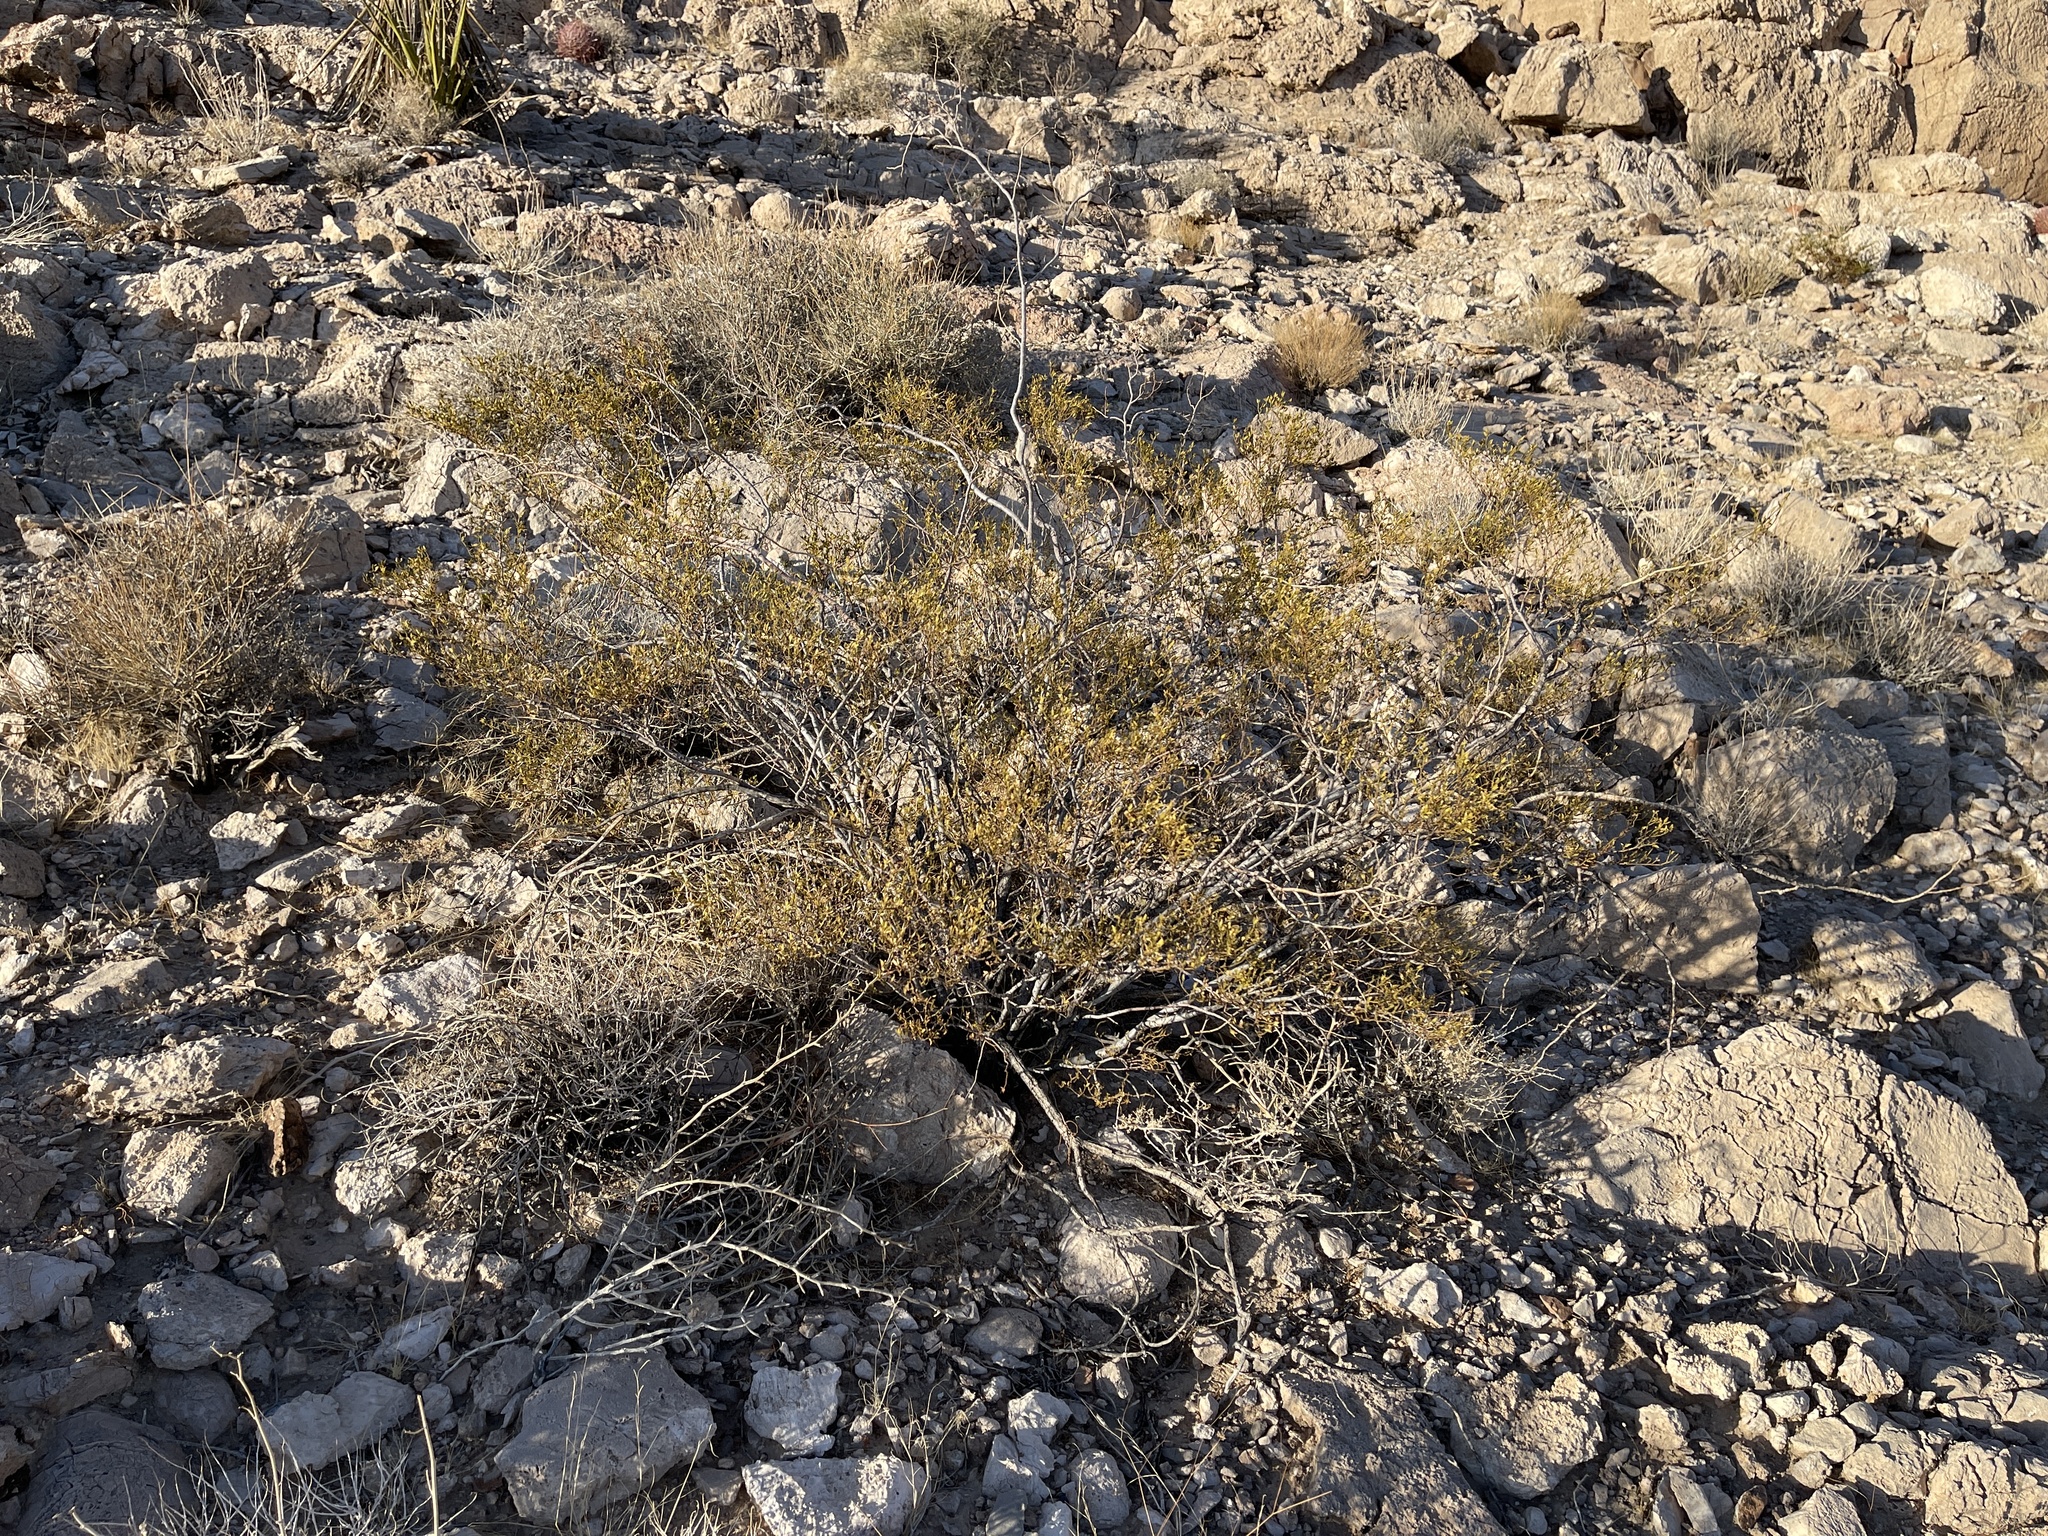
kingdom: Plantae
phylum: Tracheophyta
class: Magnoliopsida
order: Zygophyllales
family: Zygophyllaceae
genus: Larrea
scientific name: Larrea tridentata
